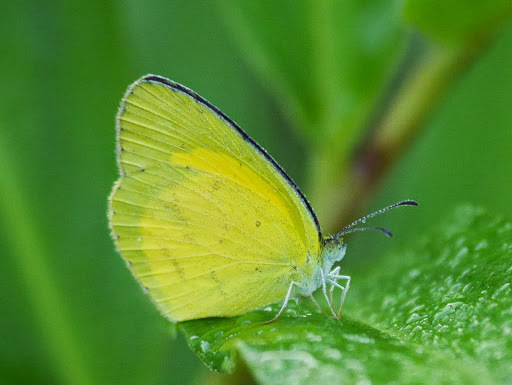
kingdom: Animalia
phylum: Arthropoda
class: Insecta
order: Lepidoptera
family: Pieridae
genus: Eurema
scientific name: Eurema brigitta
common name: Small grass yellow
